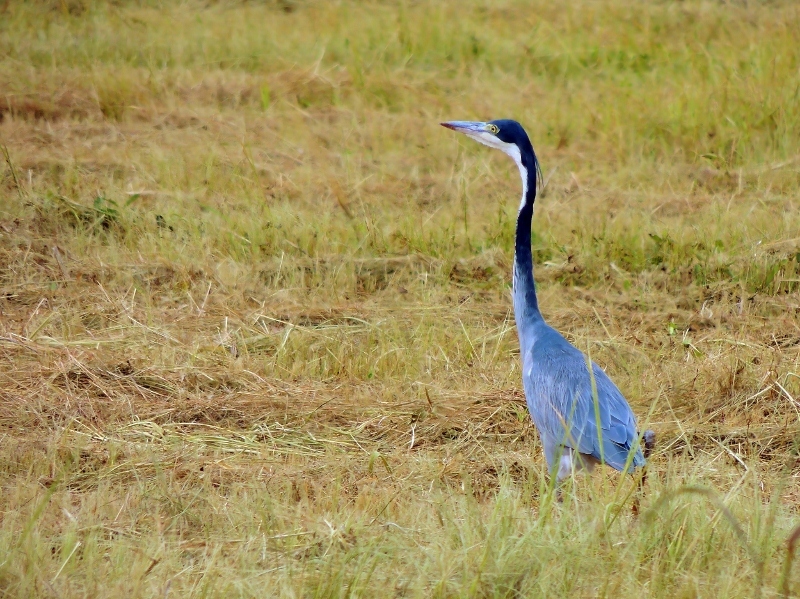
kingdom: Animalia
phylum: Chordata
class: Aves
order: Pelecaniformes
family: Ardeidae
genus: Ardea
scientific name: Ardea melanocephala
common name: Black-headed heron
